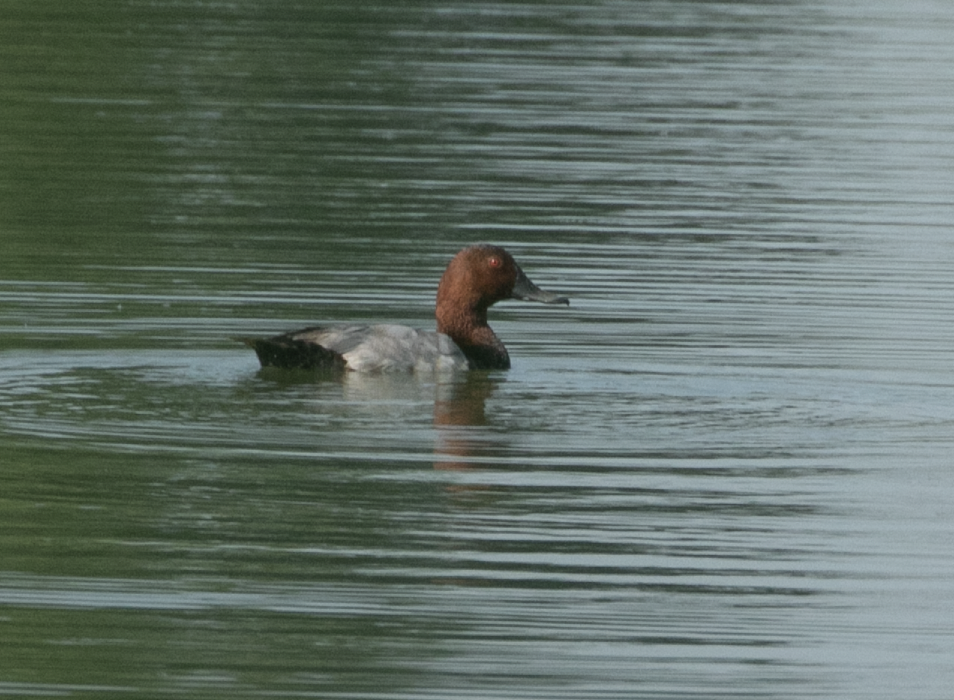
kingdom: Animalia
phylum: Chordata
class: Aves
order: Anseriformes
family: Anatidae
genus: Aythya
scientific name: Aythya ferina
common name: Common pochard
